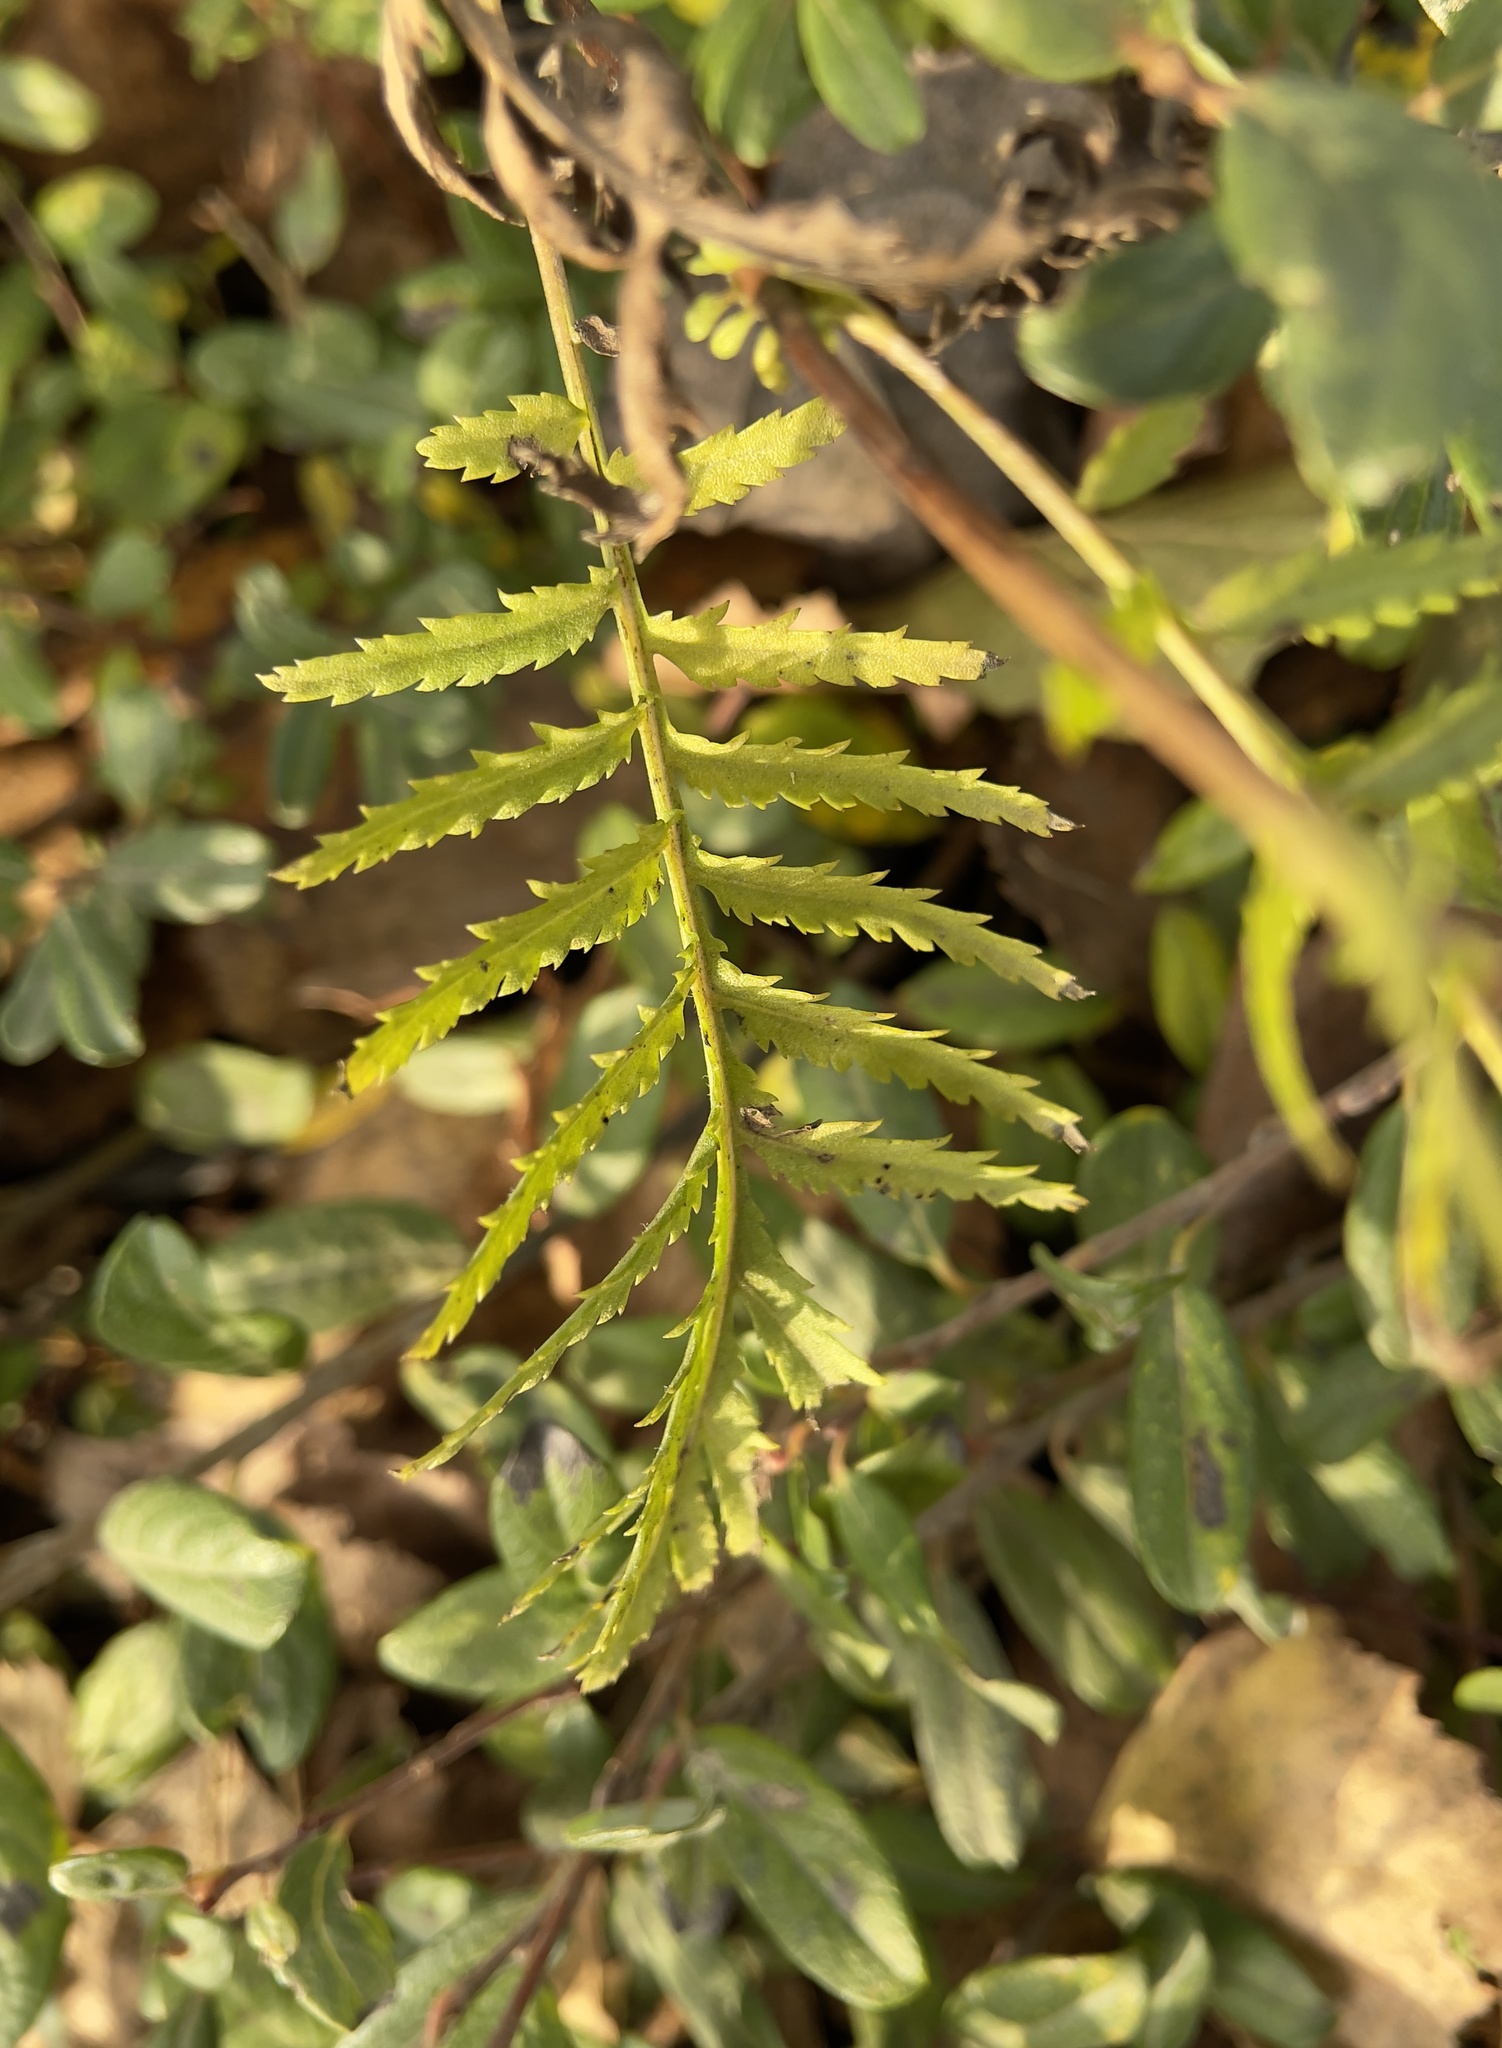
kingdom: Plantae
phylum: Tracheophyta
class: Magnoliopsida
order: Asterales
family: Asteraceae
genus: Tanacetum
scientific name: Tanacetum vulgare
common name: Common tansy
